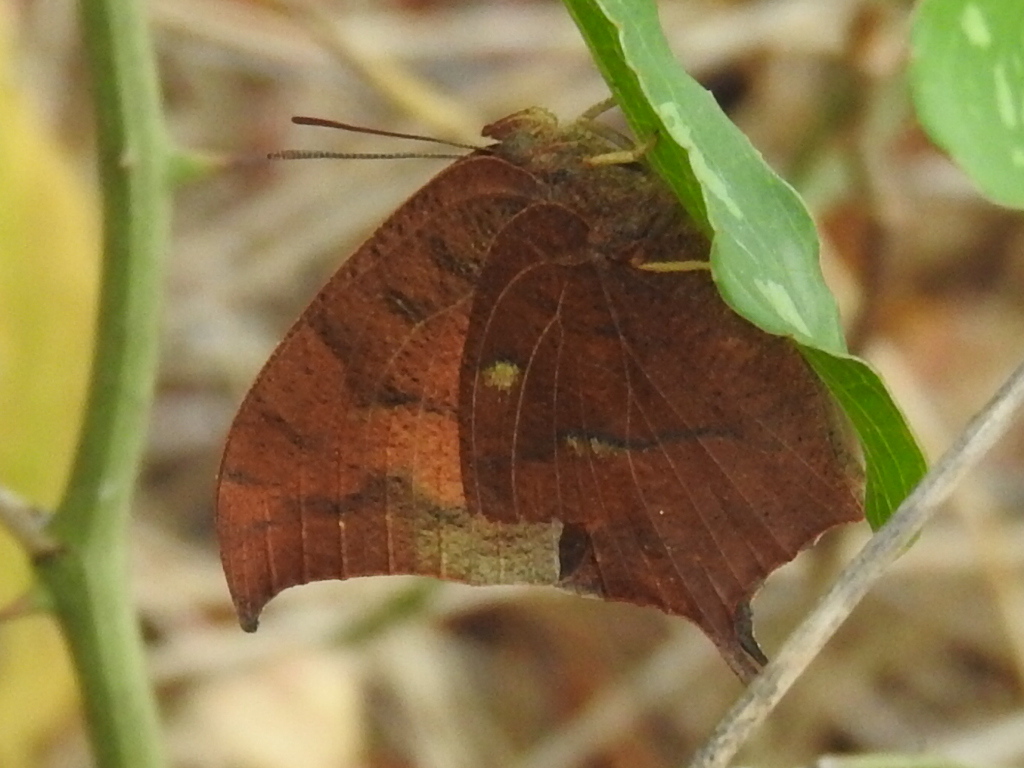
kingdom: Animalia
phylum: Arthropoda
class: Insecta
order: Lepidoptera
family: Nymphalidae
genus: Anaea
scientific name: Anaea andria
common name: Goatweed leafwing
